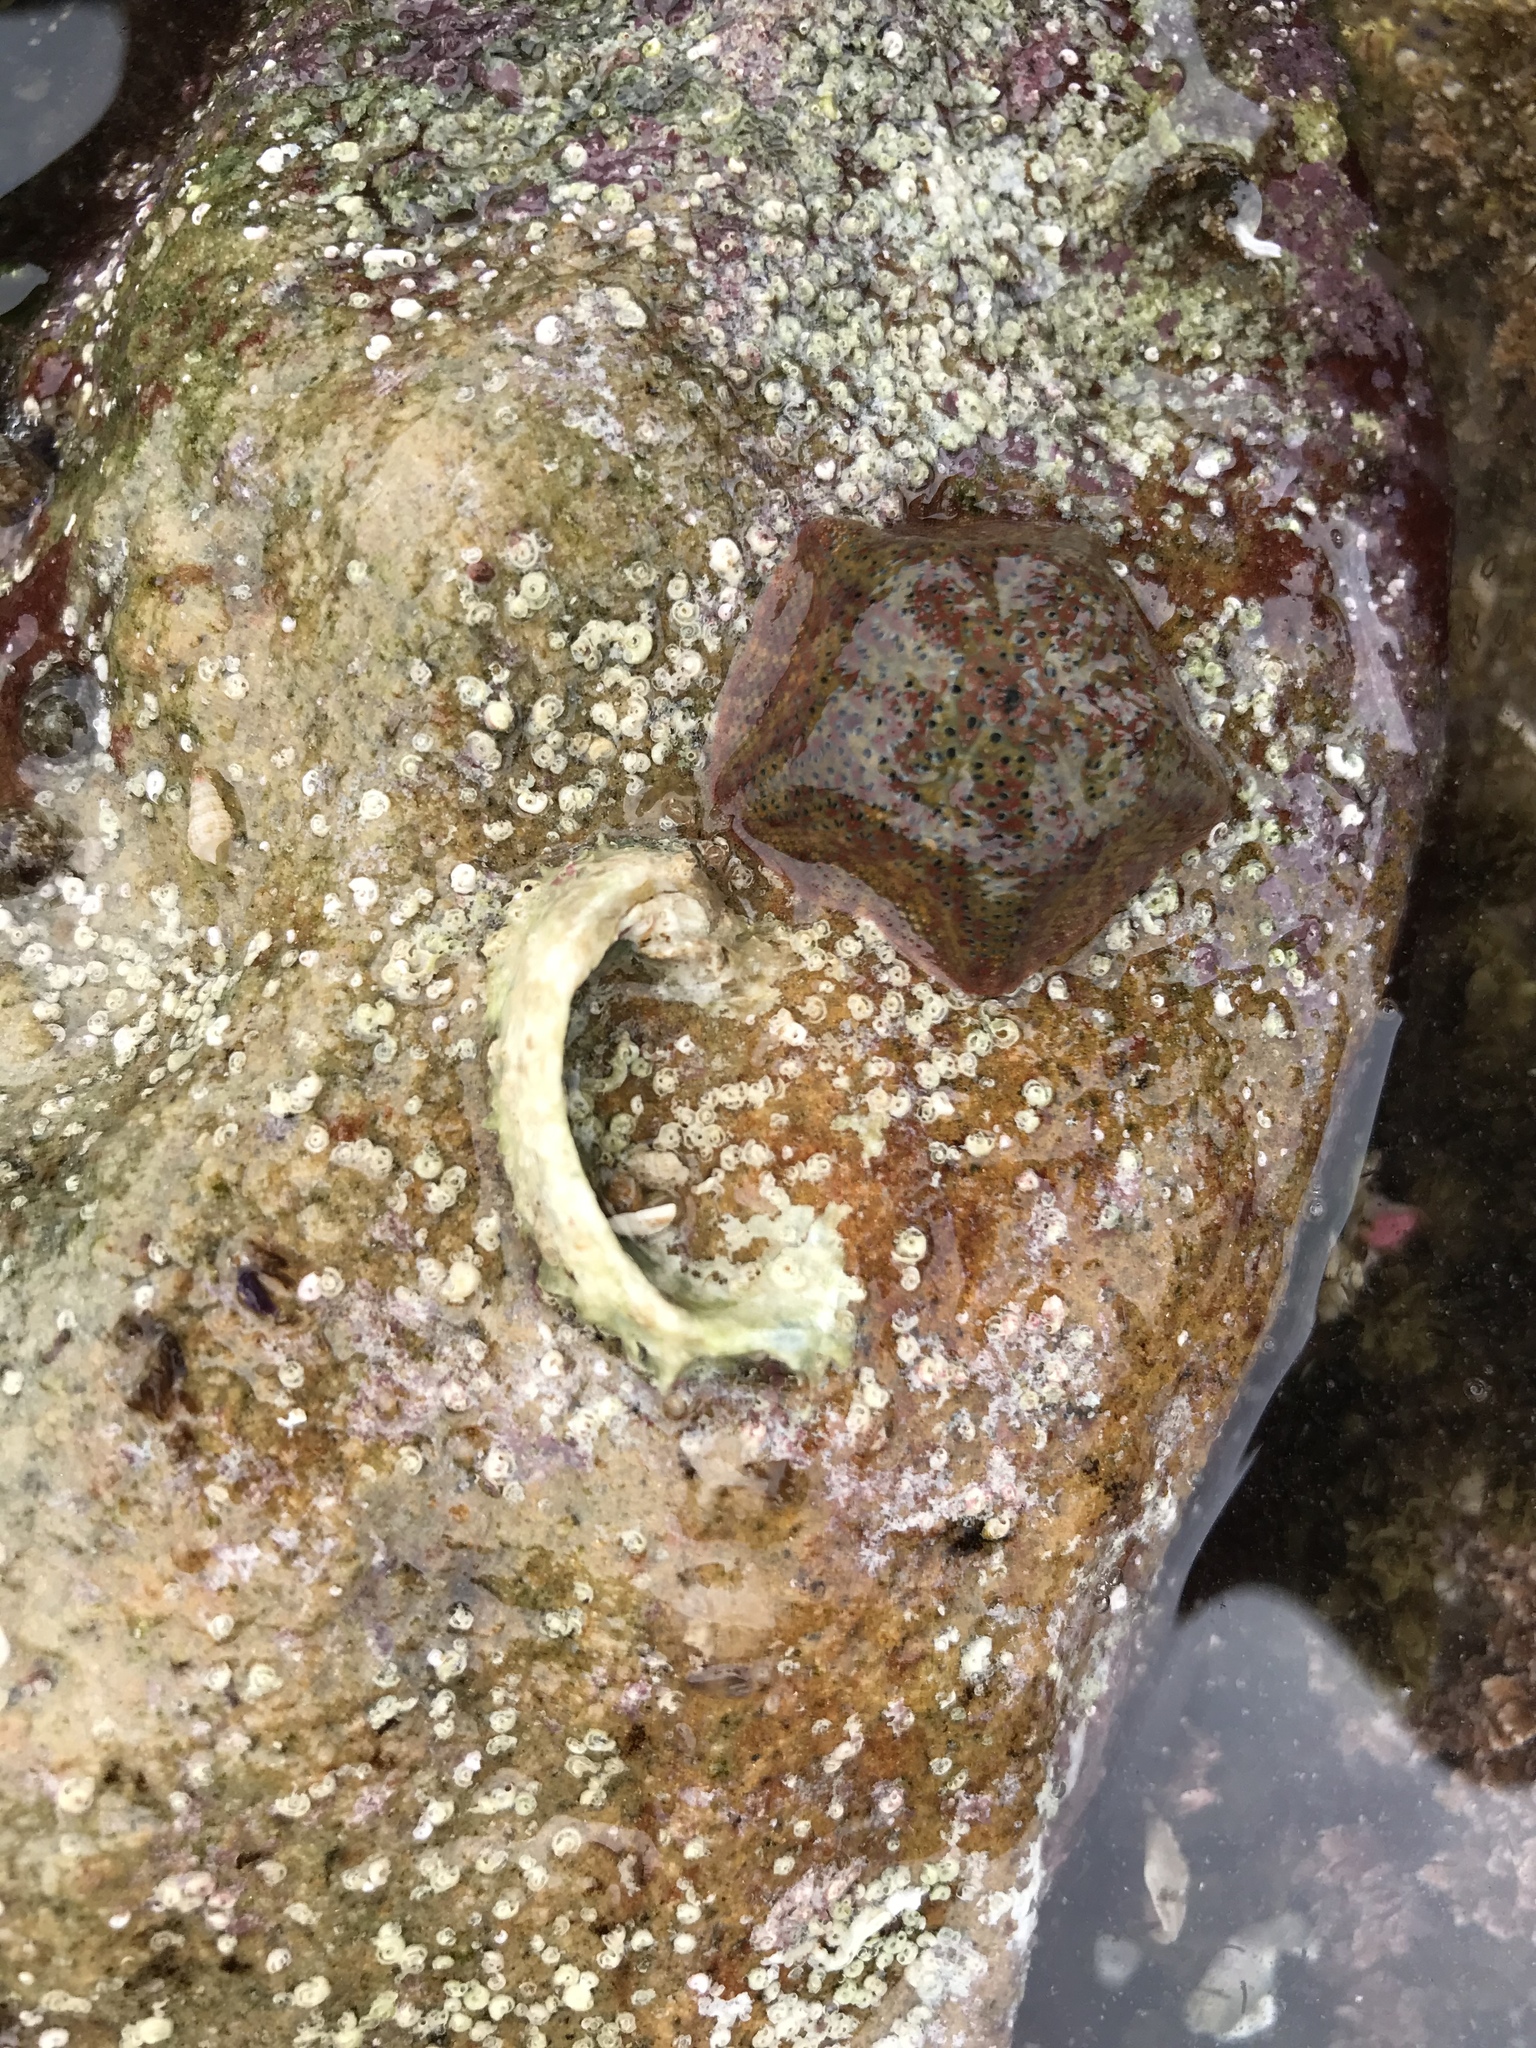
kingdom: Animalia
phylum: Echinodermata
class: Asteroidea
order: Valvatida
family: Asterinidae
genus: Parvulastra
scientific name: Parvulastra exigua
